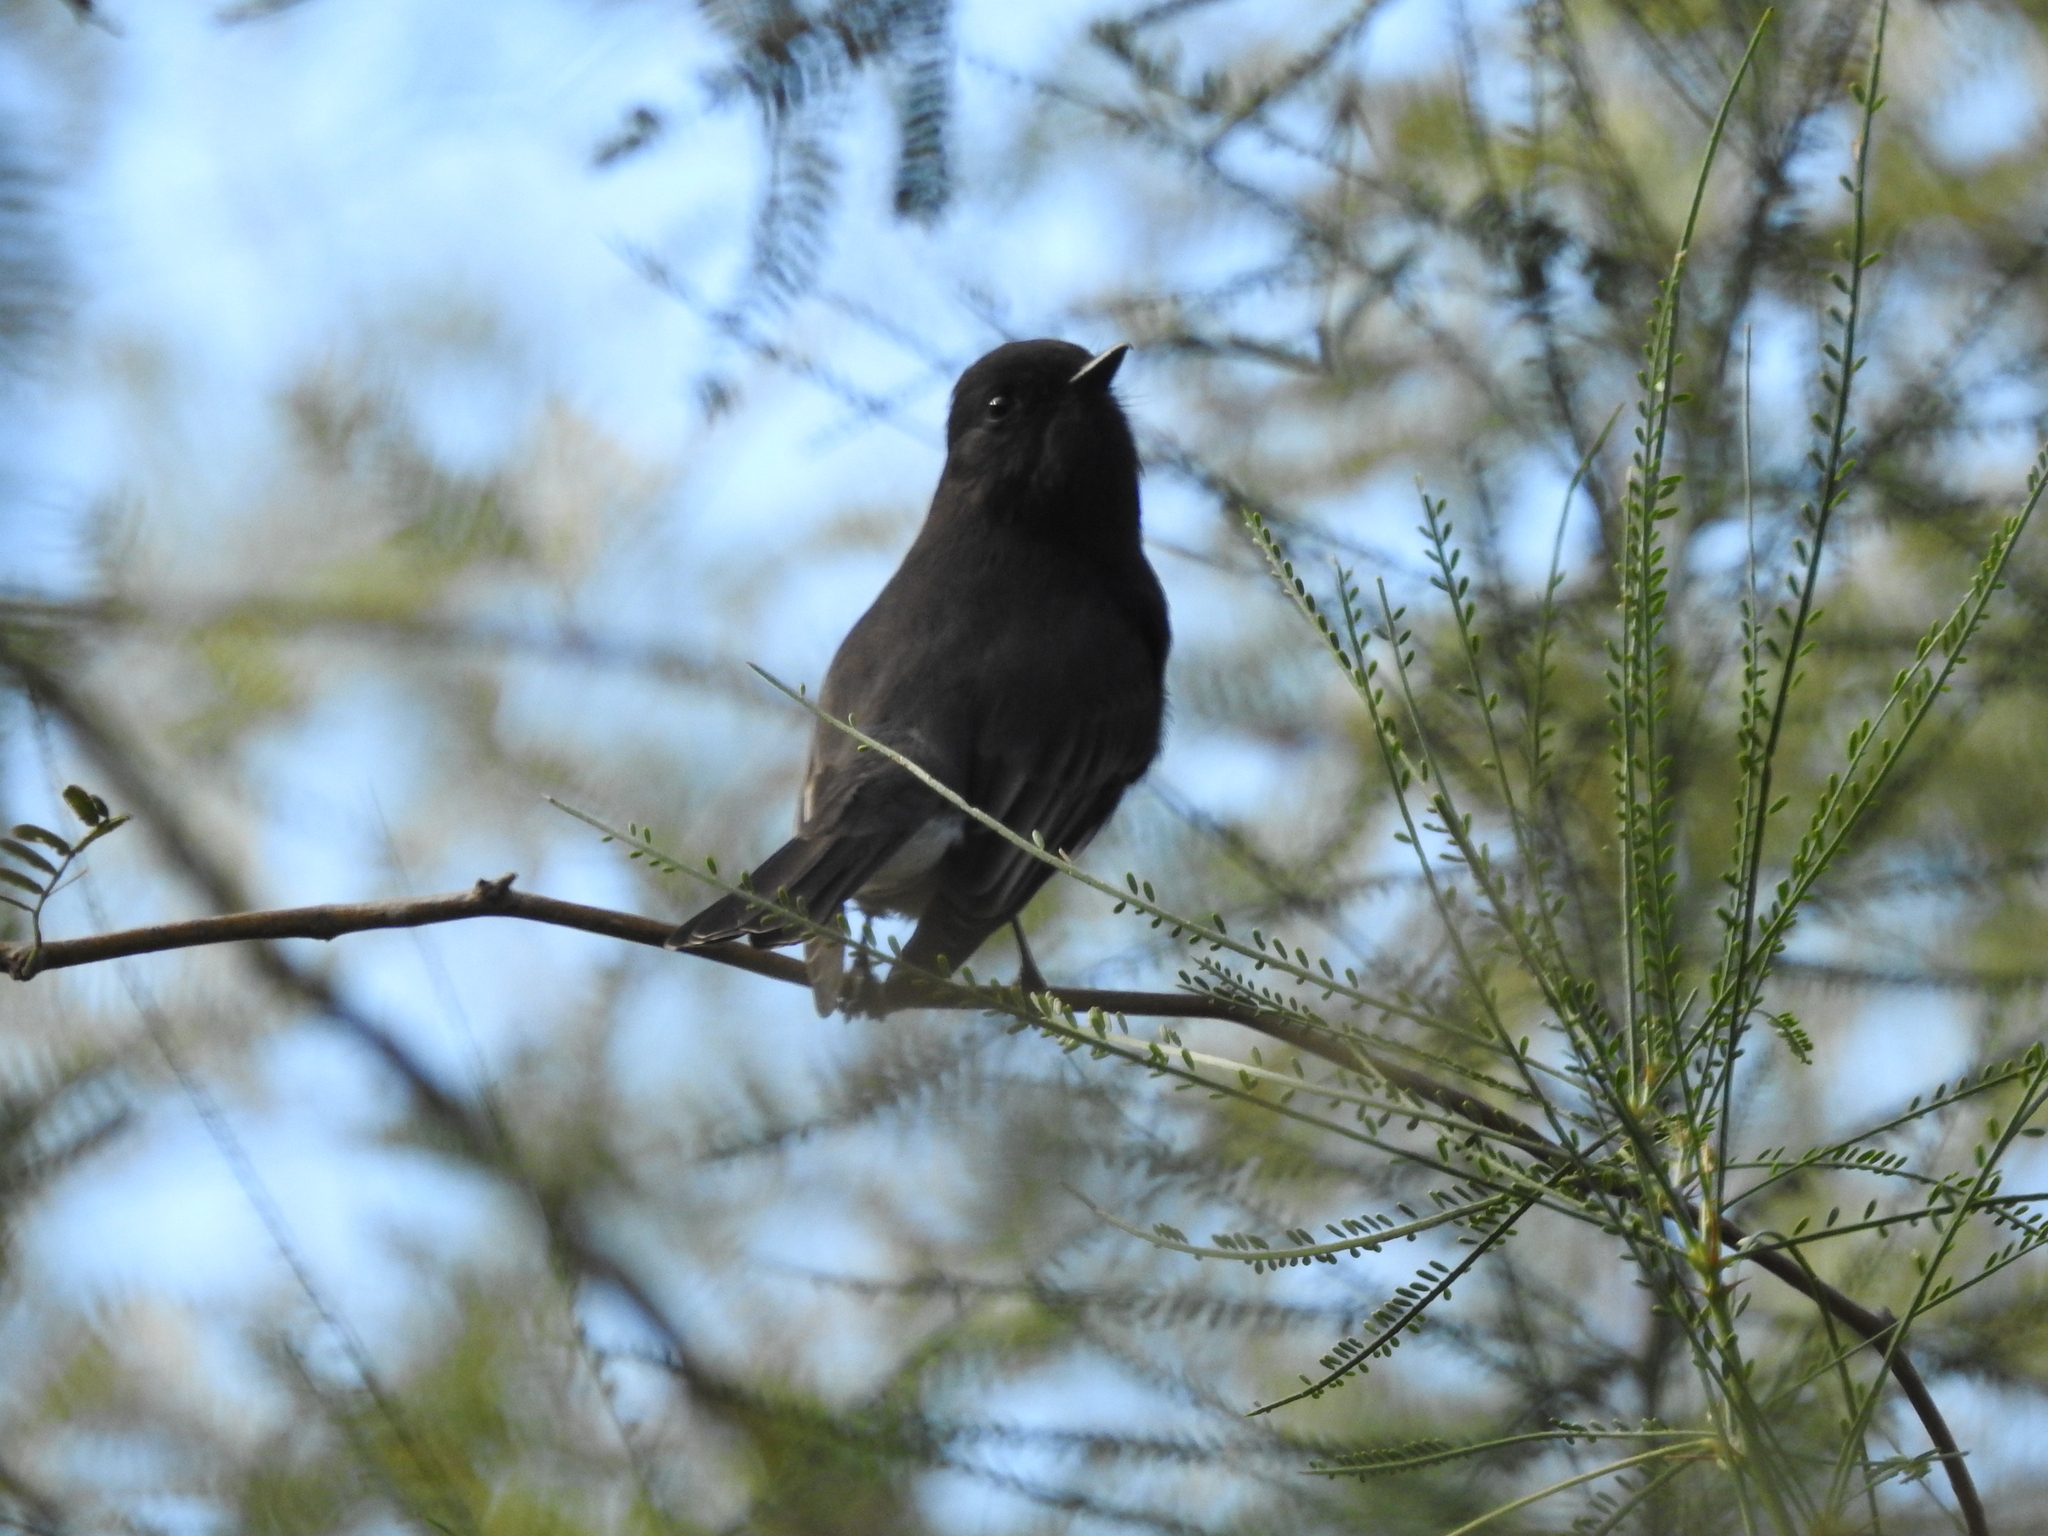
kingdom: Animalia
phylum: Chordata
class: Aves
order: Passeriformes
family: Tyrannidae
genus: Sayornis
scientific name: Sayornis nigricans
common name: Black phoebe
